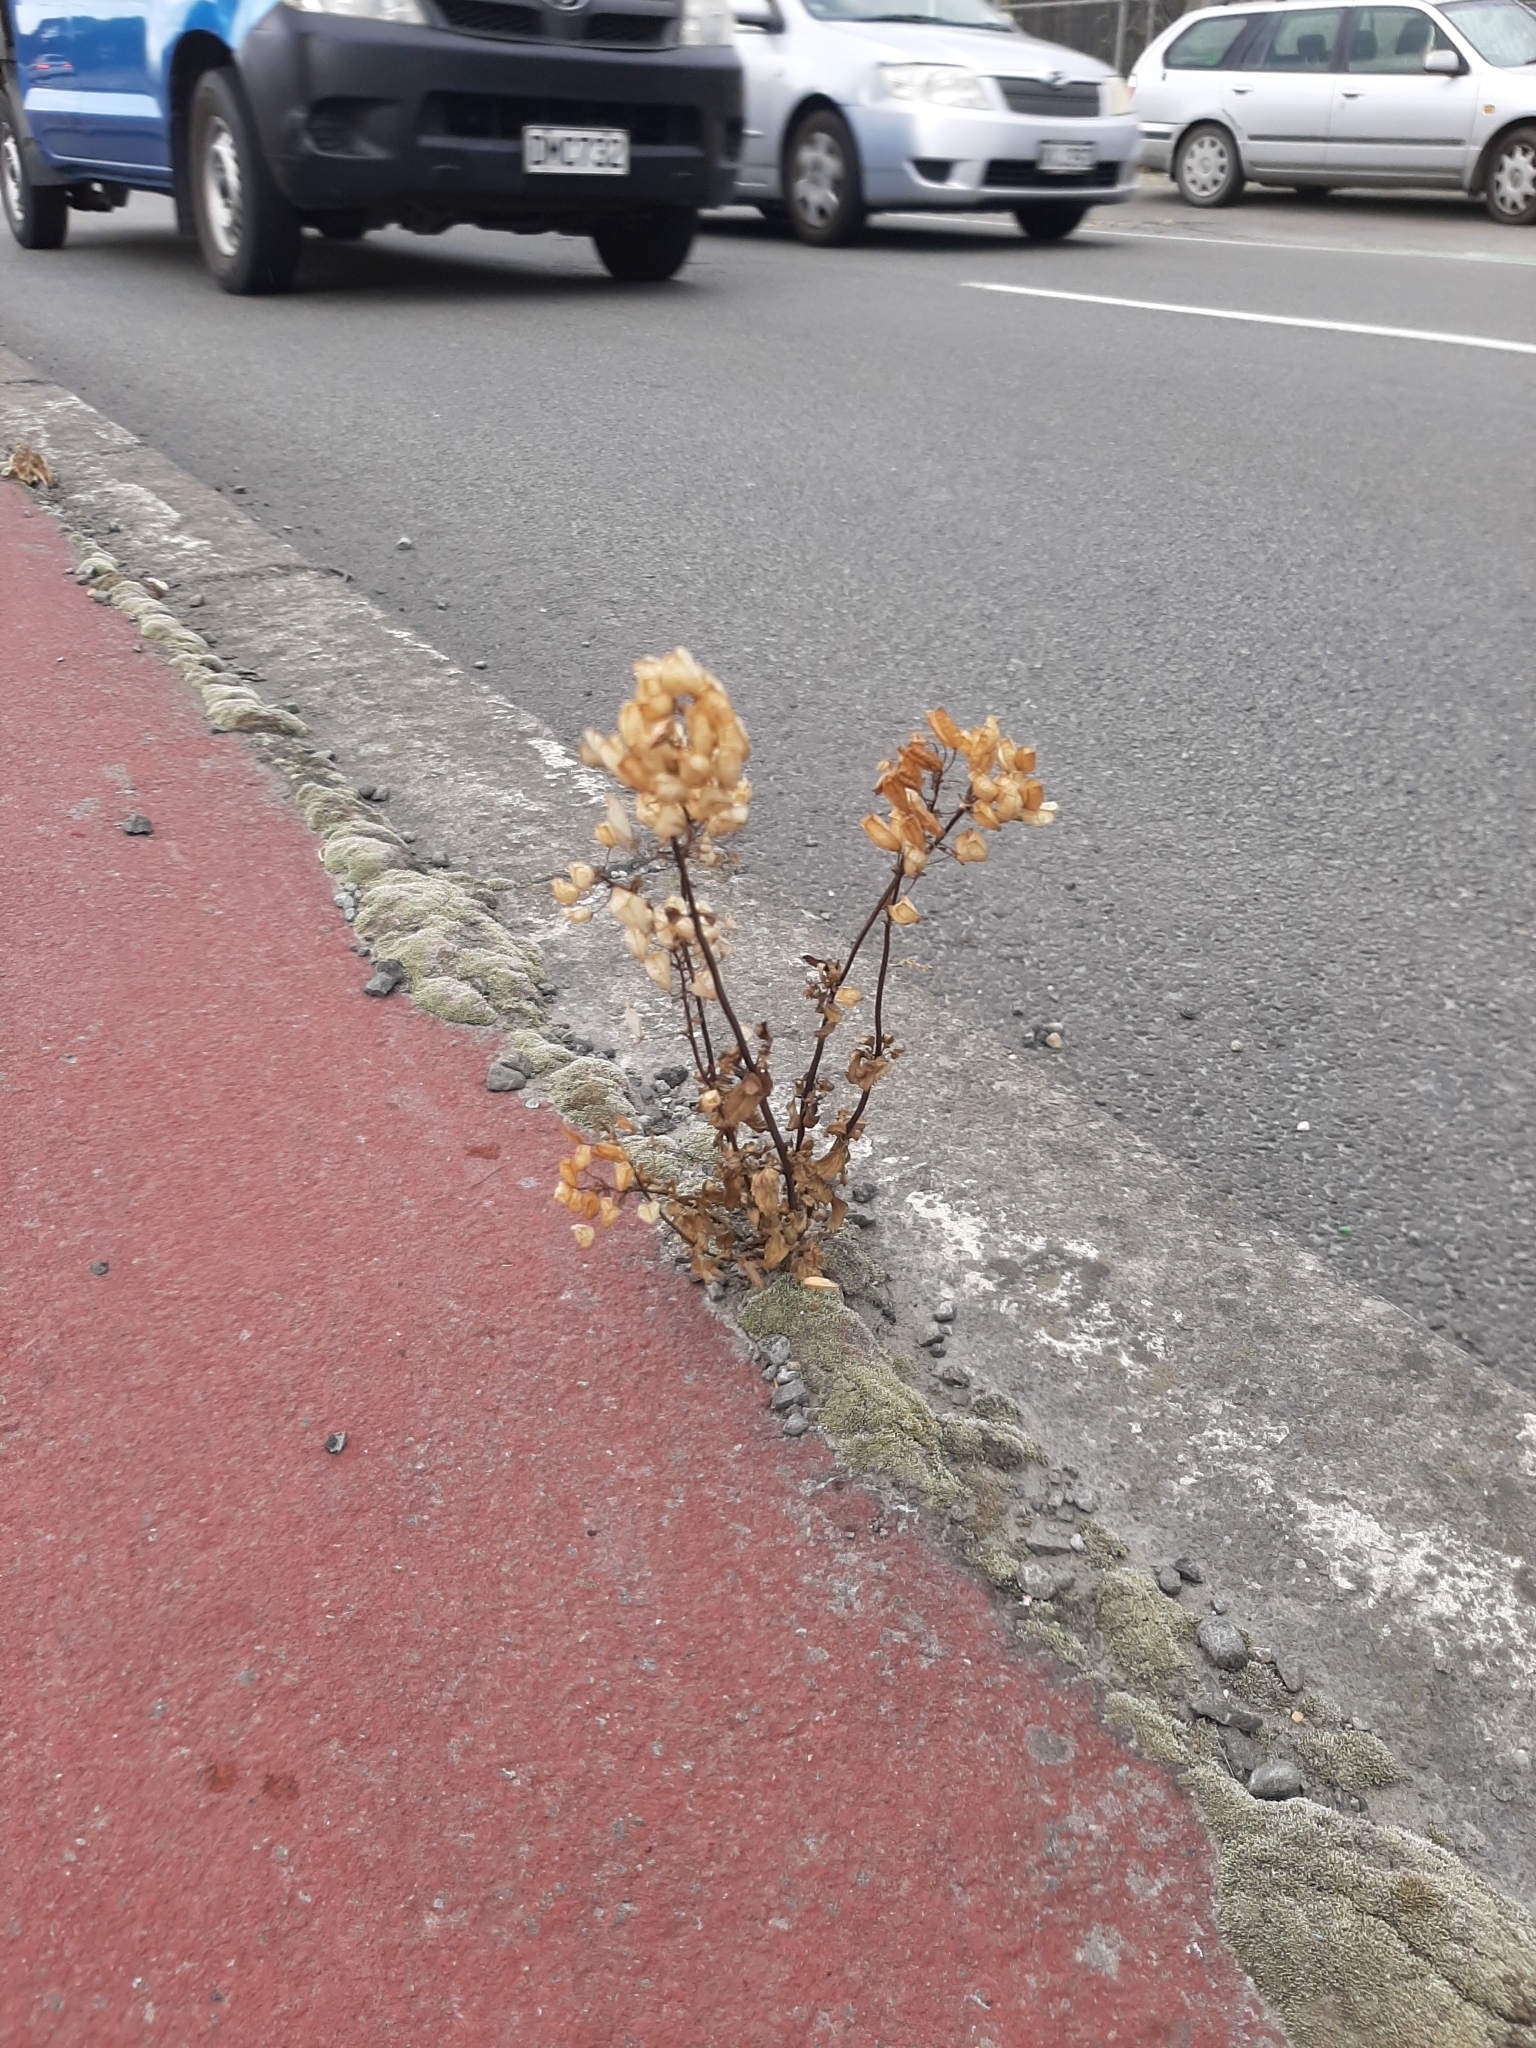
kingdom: Plantae
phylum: Tracheophyta
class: Magnoliopsida
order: Lamiales
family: Scrophulariaceae
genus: Nemesia
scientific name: Nemesia floribunda
